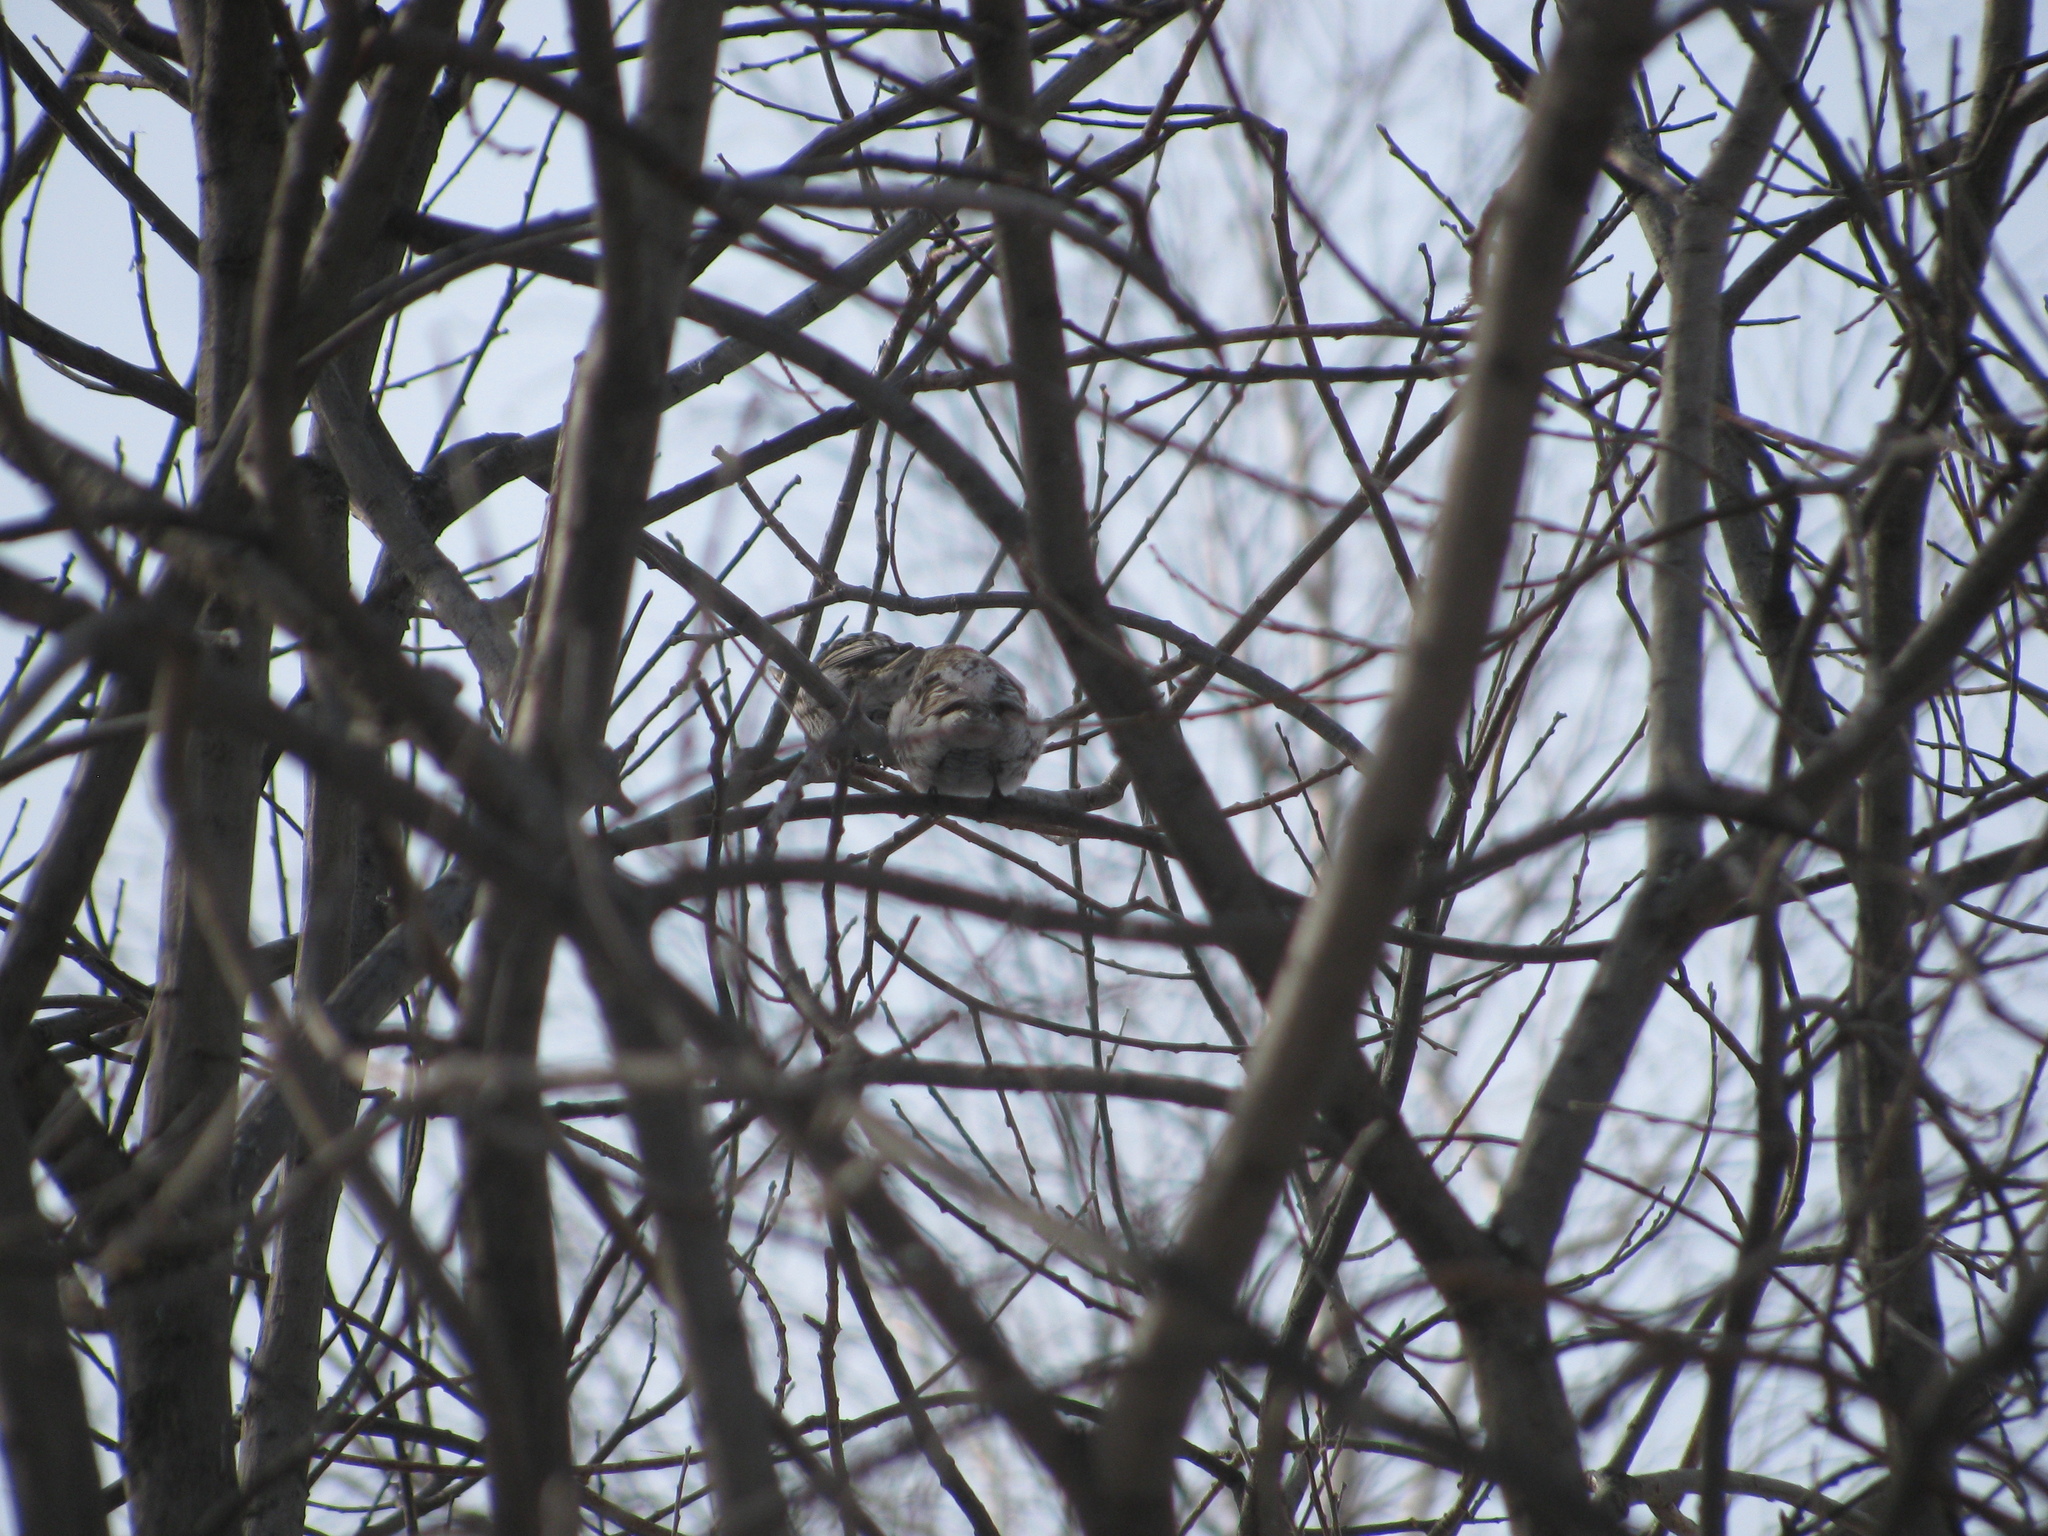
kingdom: Animalia
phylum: Chordata
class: Aves
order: Passeriformes
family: Fringillidae
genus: Acanthis
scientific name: Acanthis flammea
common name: Common redpoll
